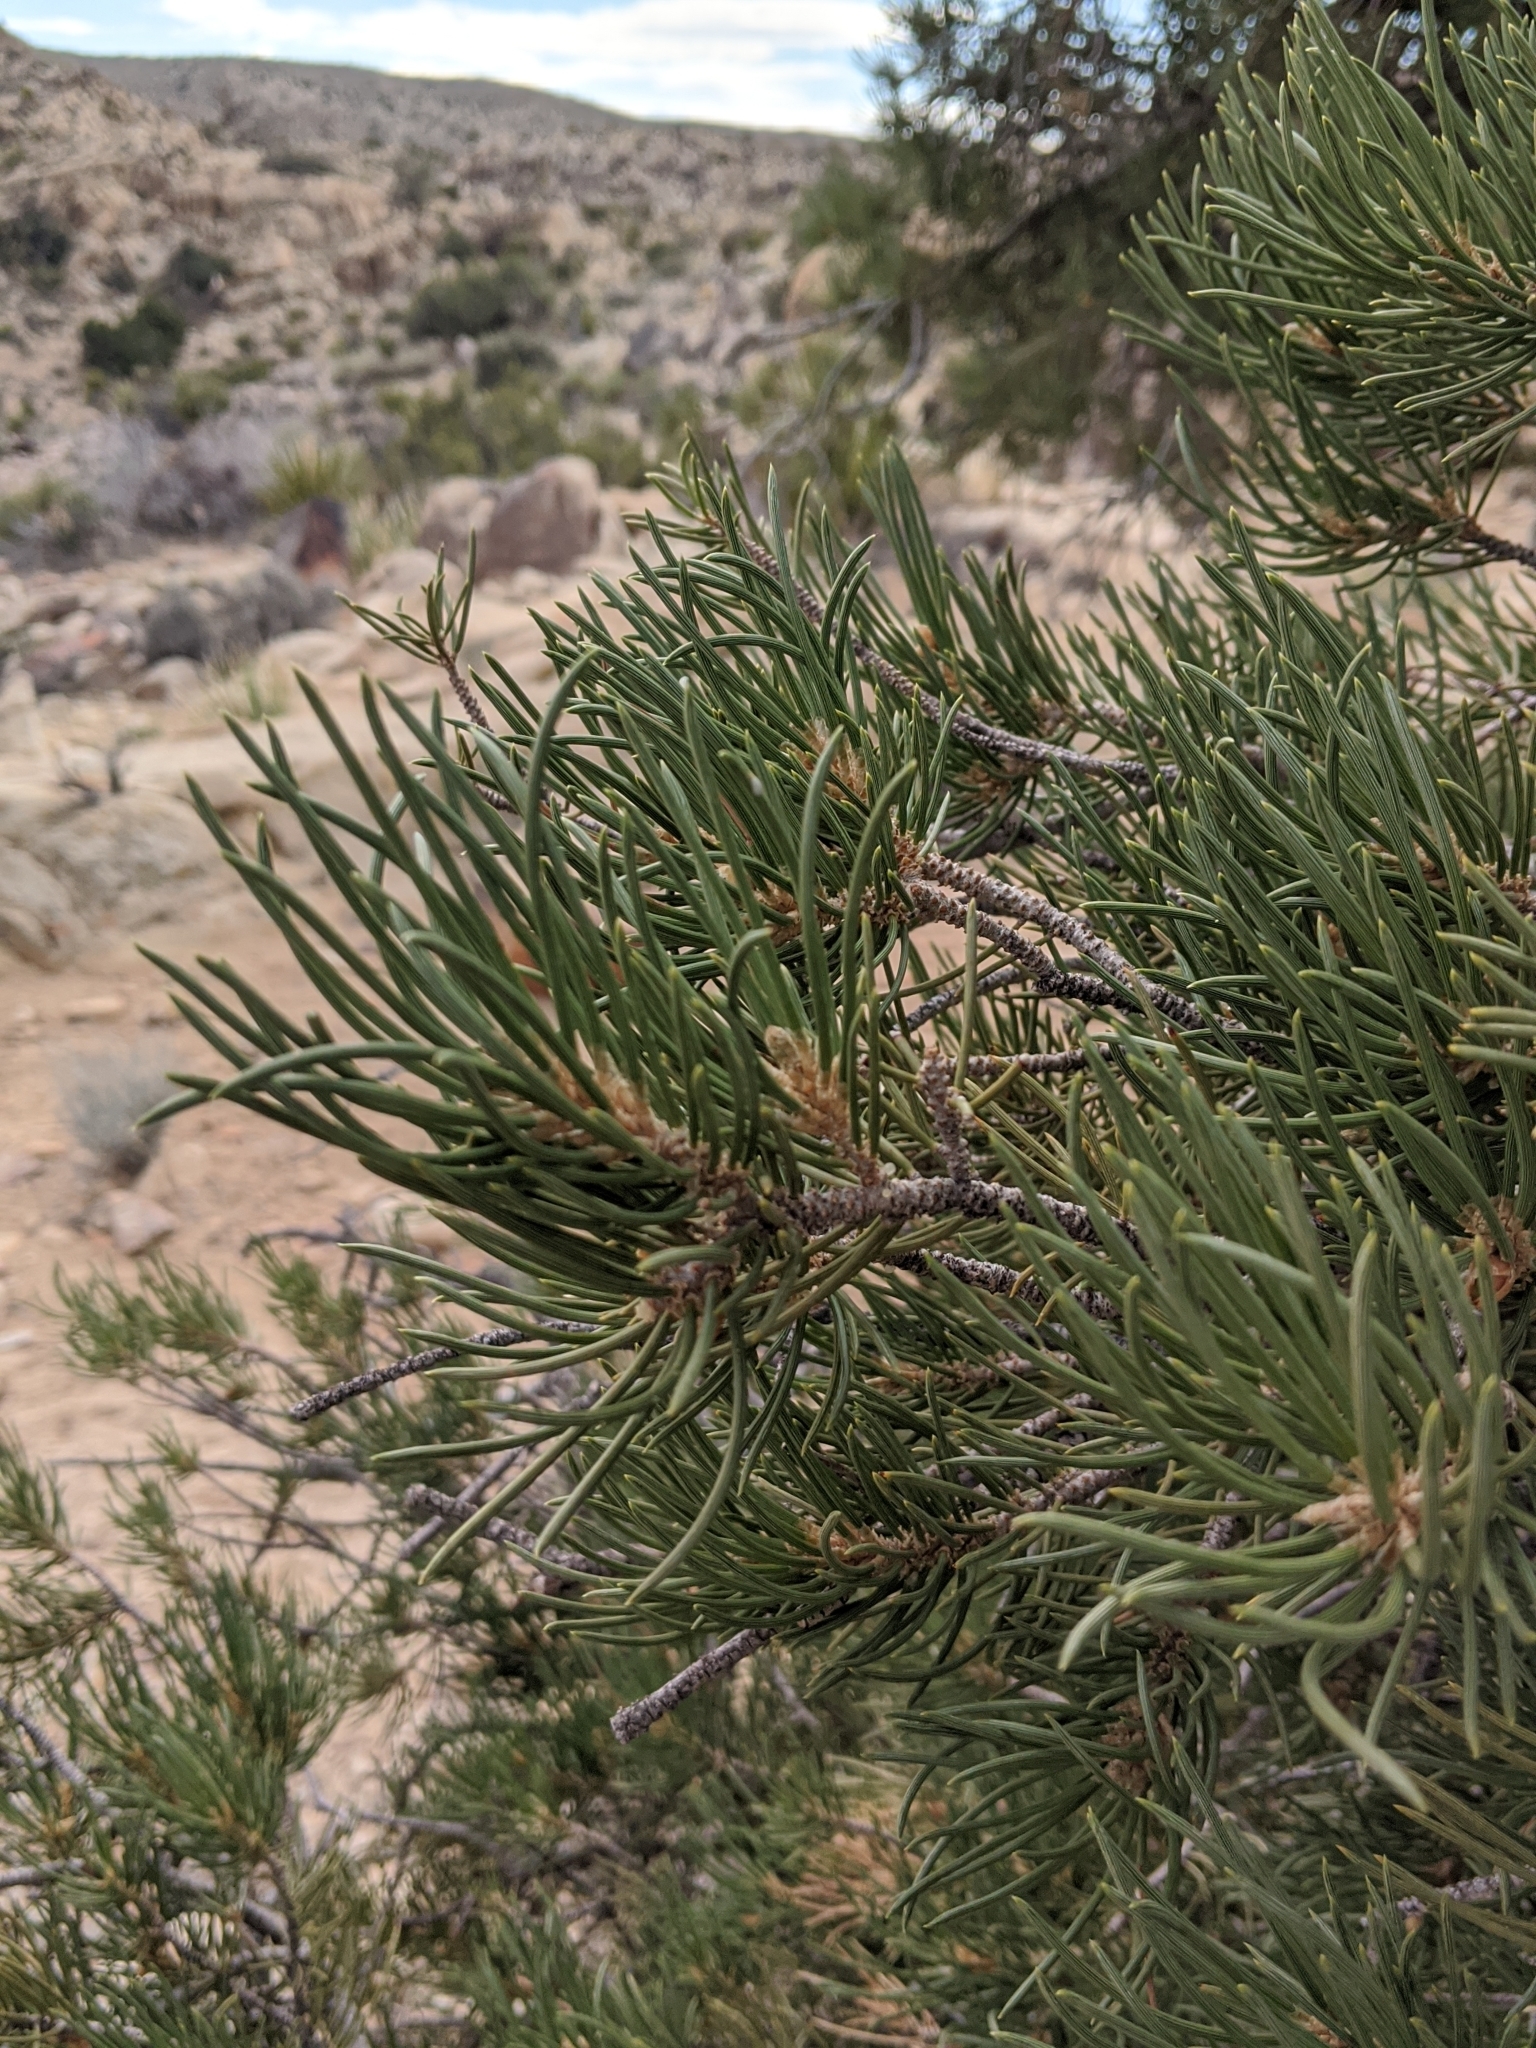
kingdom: Plantae
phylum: Tracheophyta
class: Pinopsida
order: Pinales
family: Pinaceae
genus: Pinus
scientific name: Pinus monophylla
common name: One-leaved nut pine
